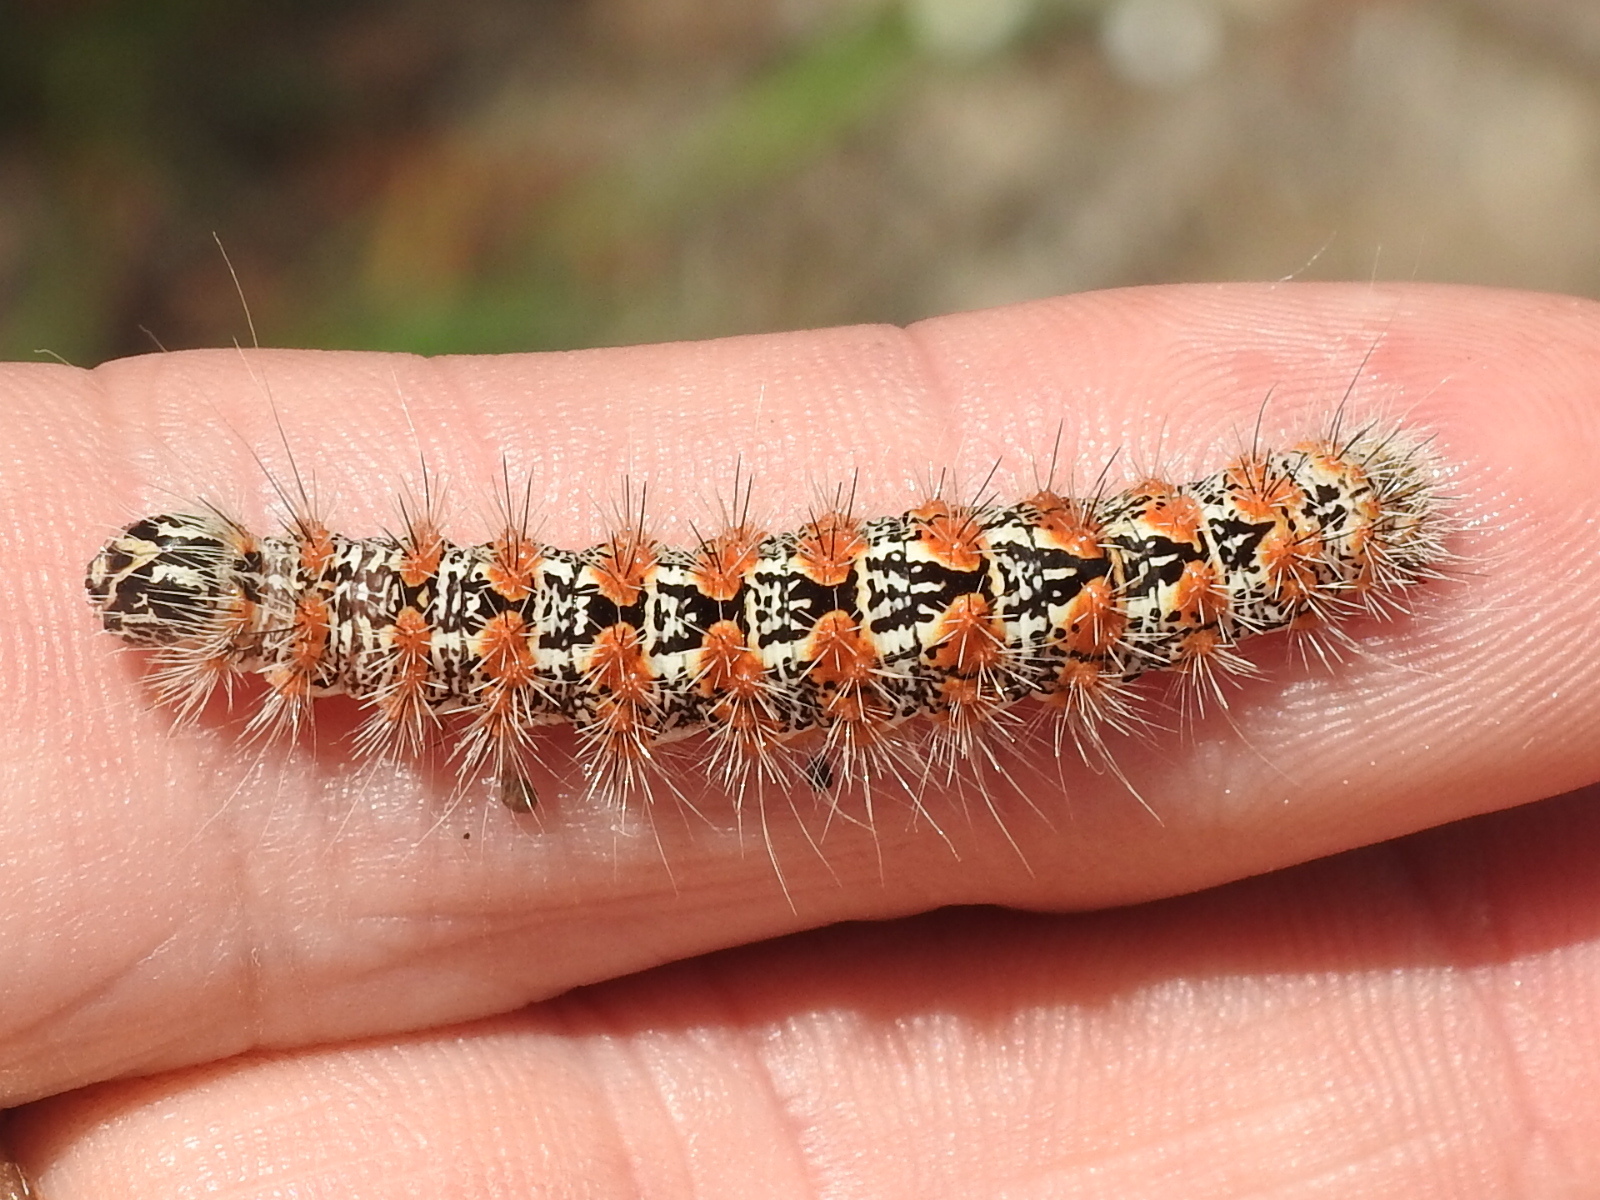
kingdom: Animalia
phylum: Arthropoda
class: Insecta
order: Lepidoptera
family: Noctuidae
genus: Acronicta
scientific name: Acronicta insularis
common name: Henry's marsh moth
